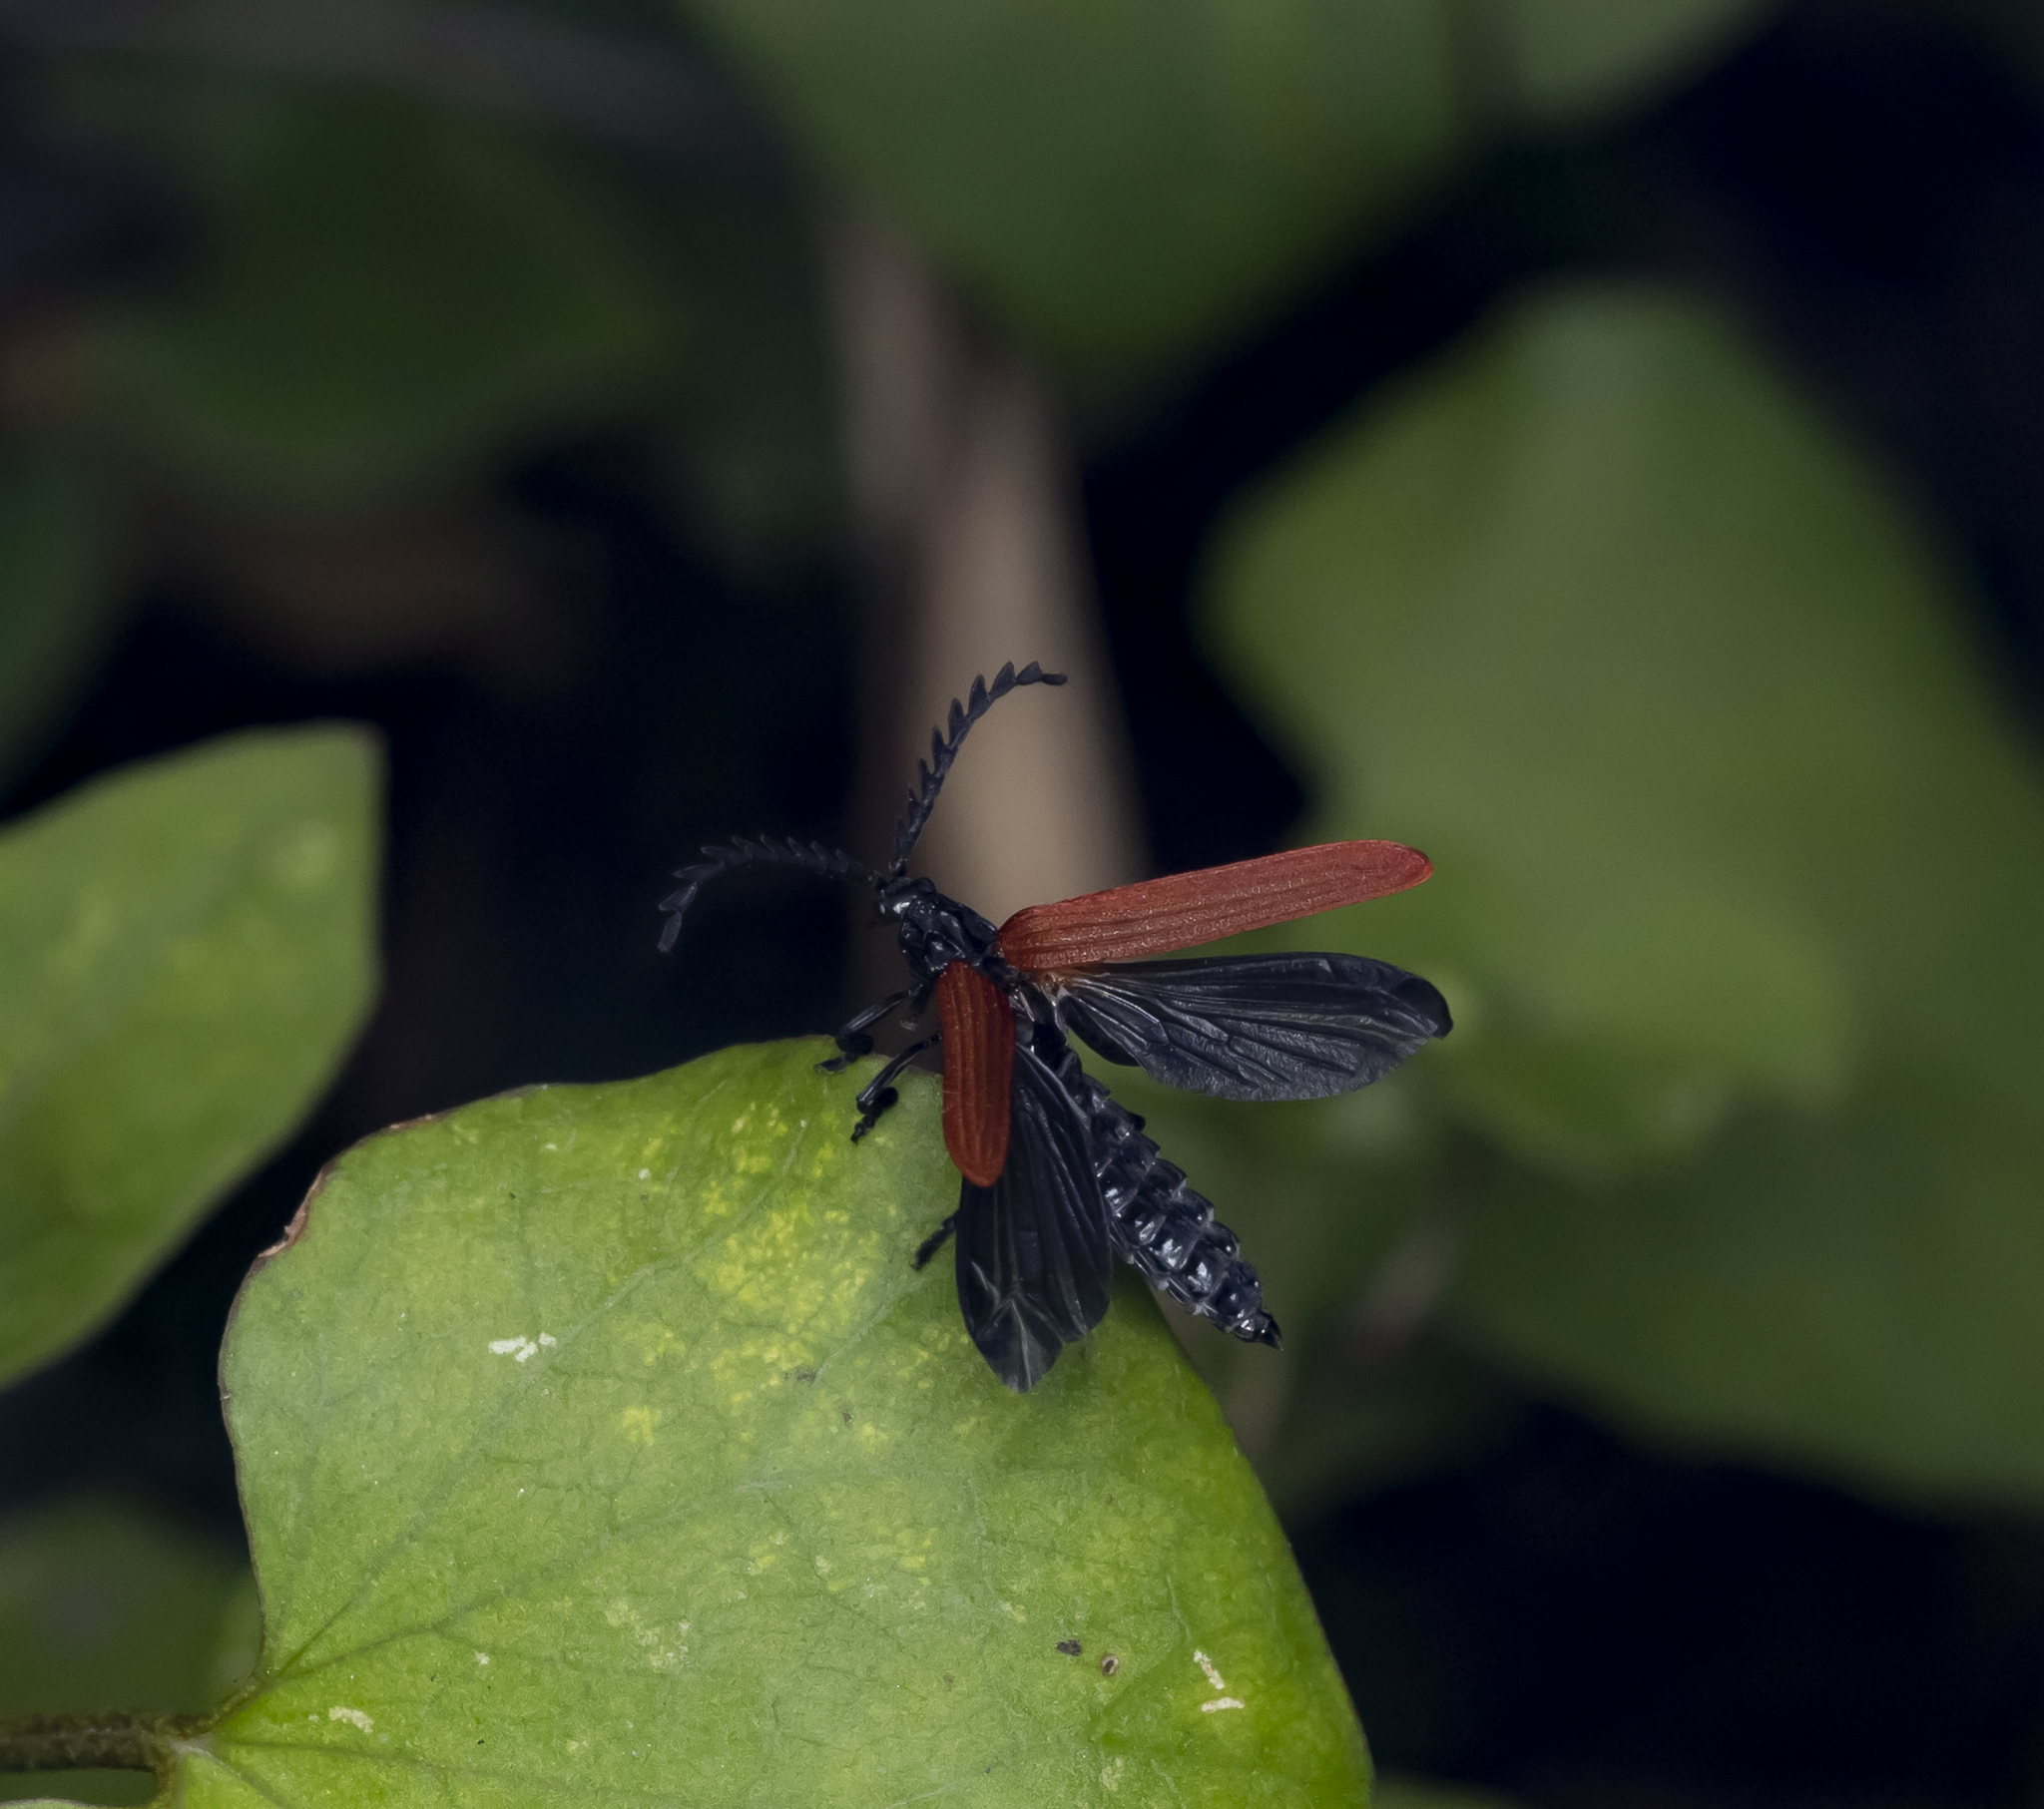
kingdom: Animalia
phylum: Arthropoda
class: Insecta
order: Coleoptera
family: Lycidae
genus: Porrostoma
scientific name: Porrostoma rufipenne
